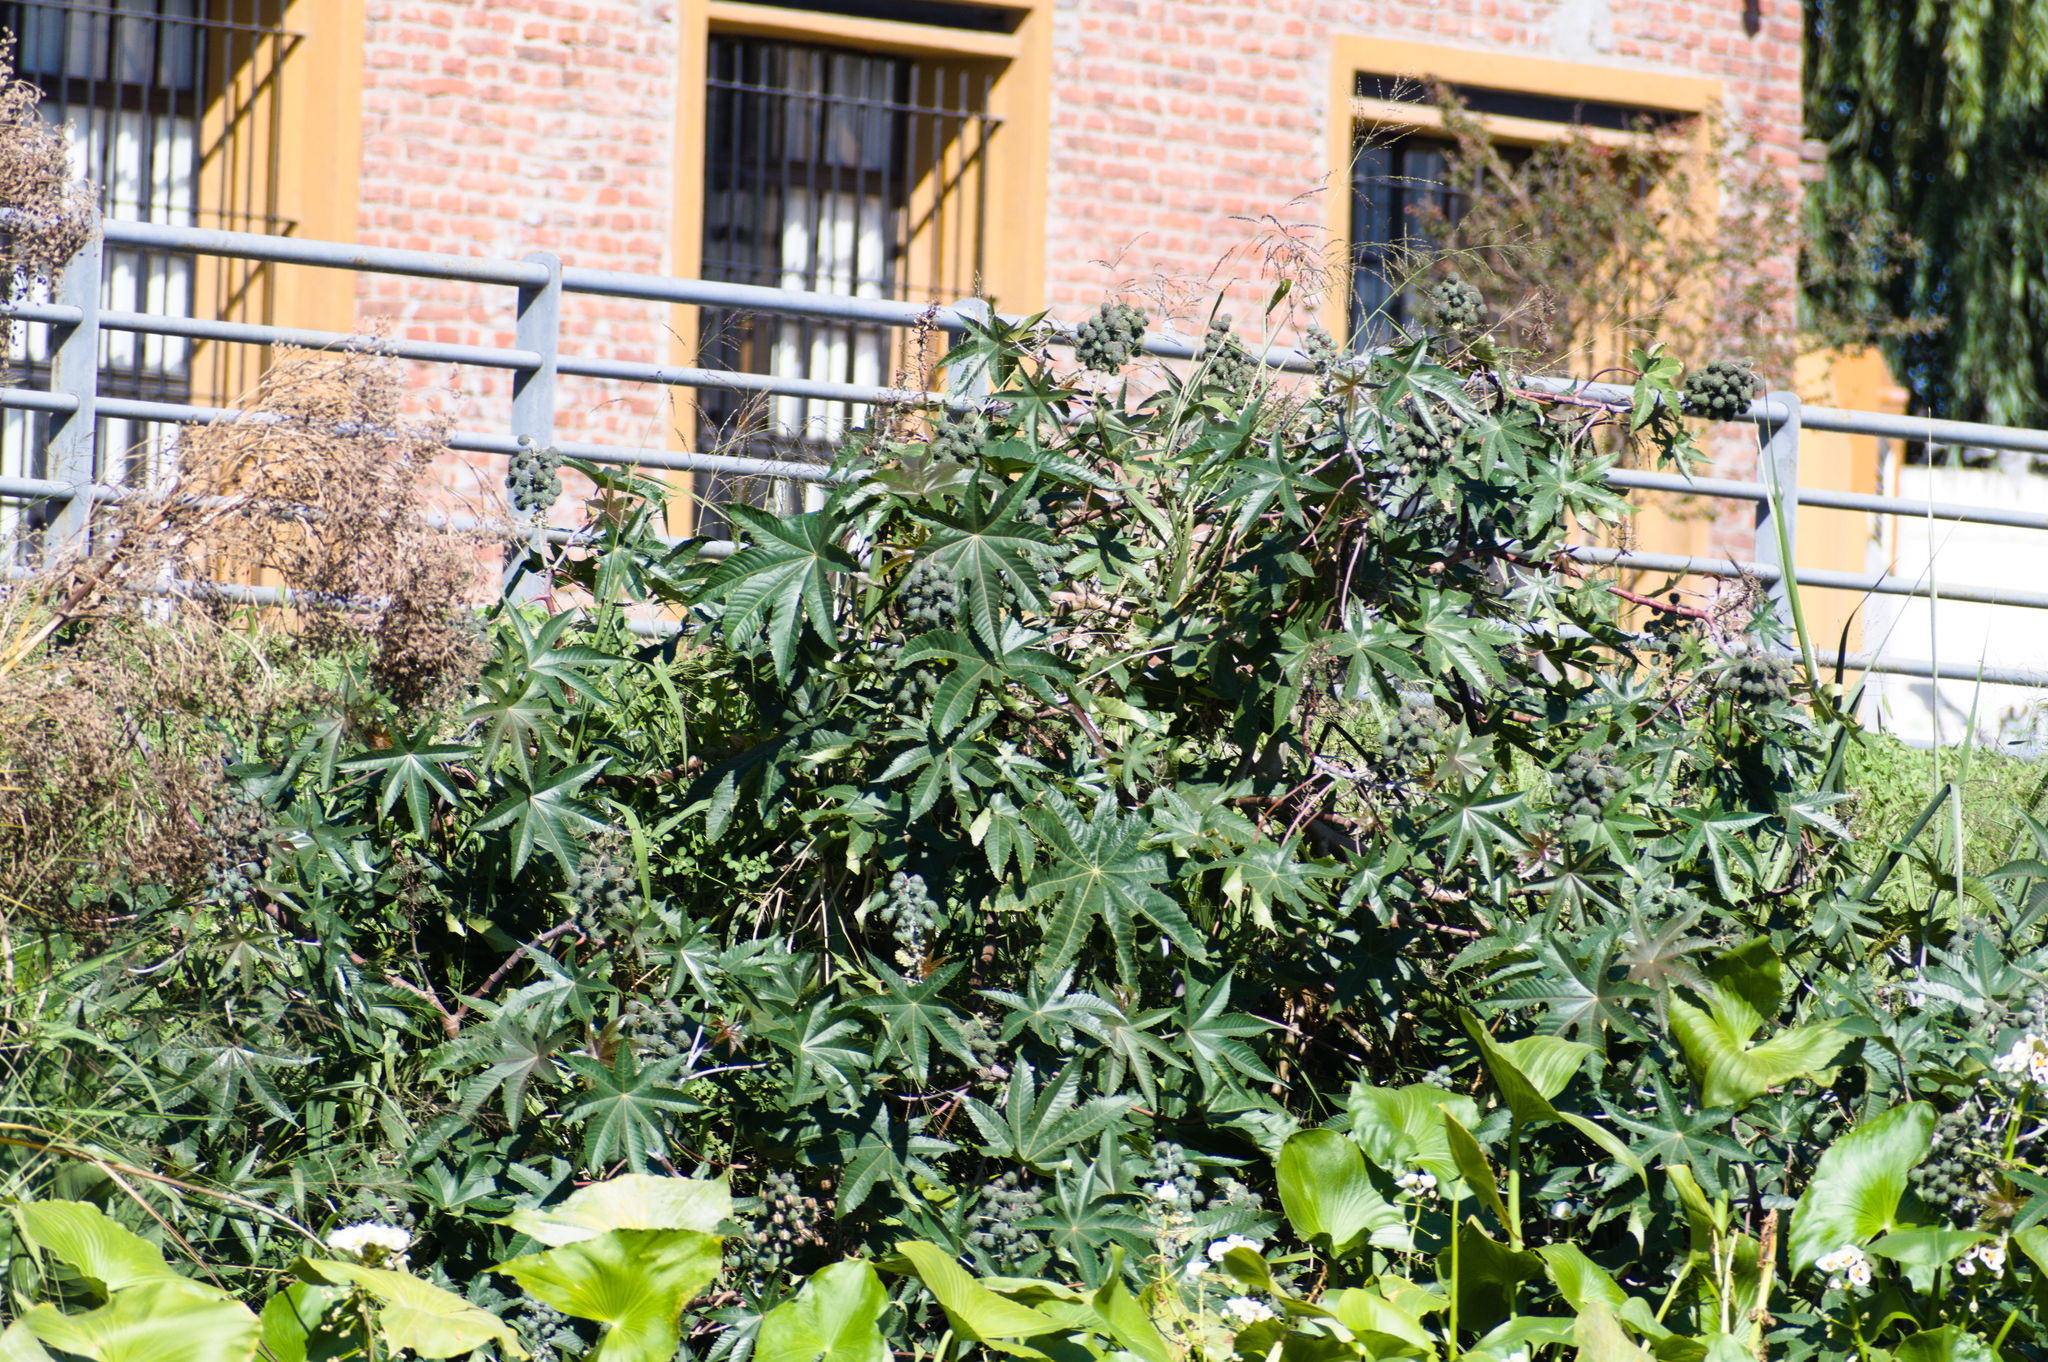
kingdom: Plantae
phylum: Tracheophyta
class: Magnoliopsida
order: Malpighiales
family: Euphorbiaceae
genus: Ricinus
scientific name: Ricinus communis
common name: Castor-oil-plant
